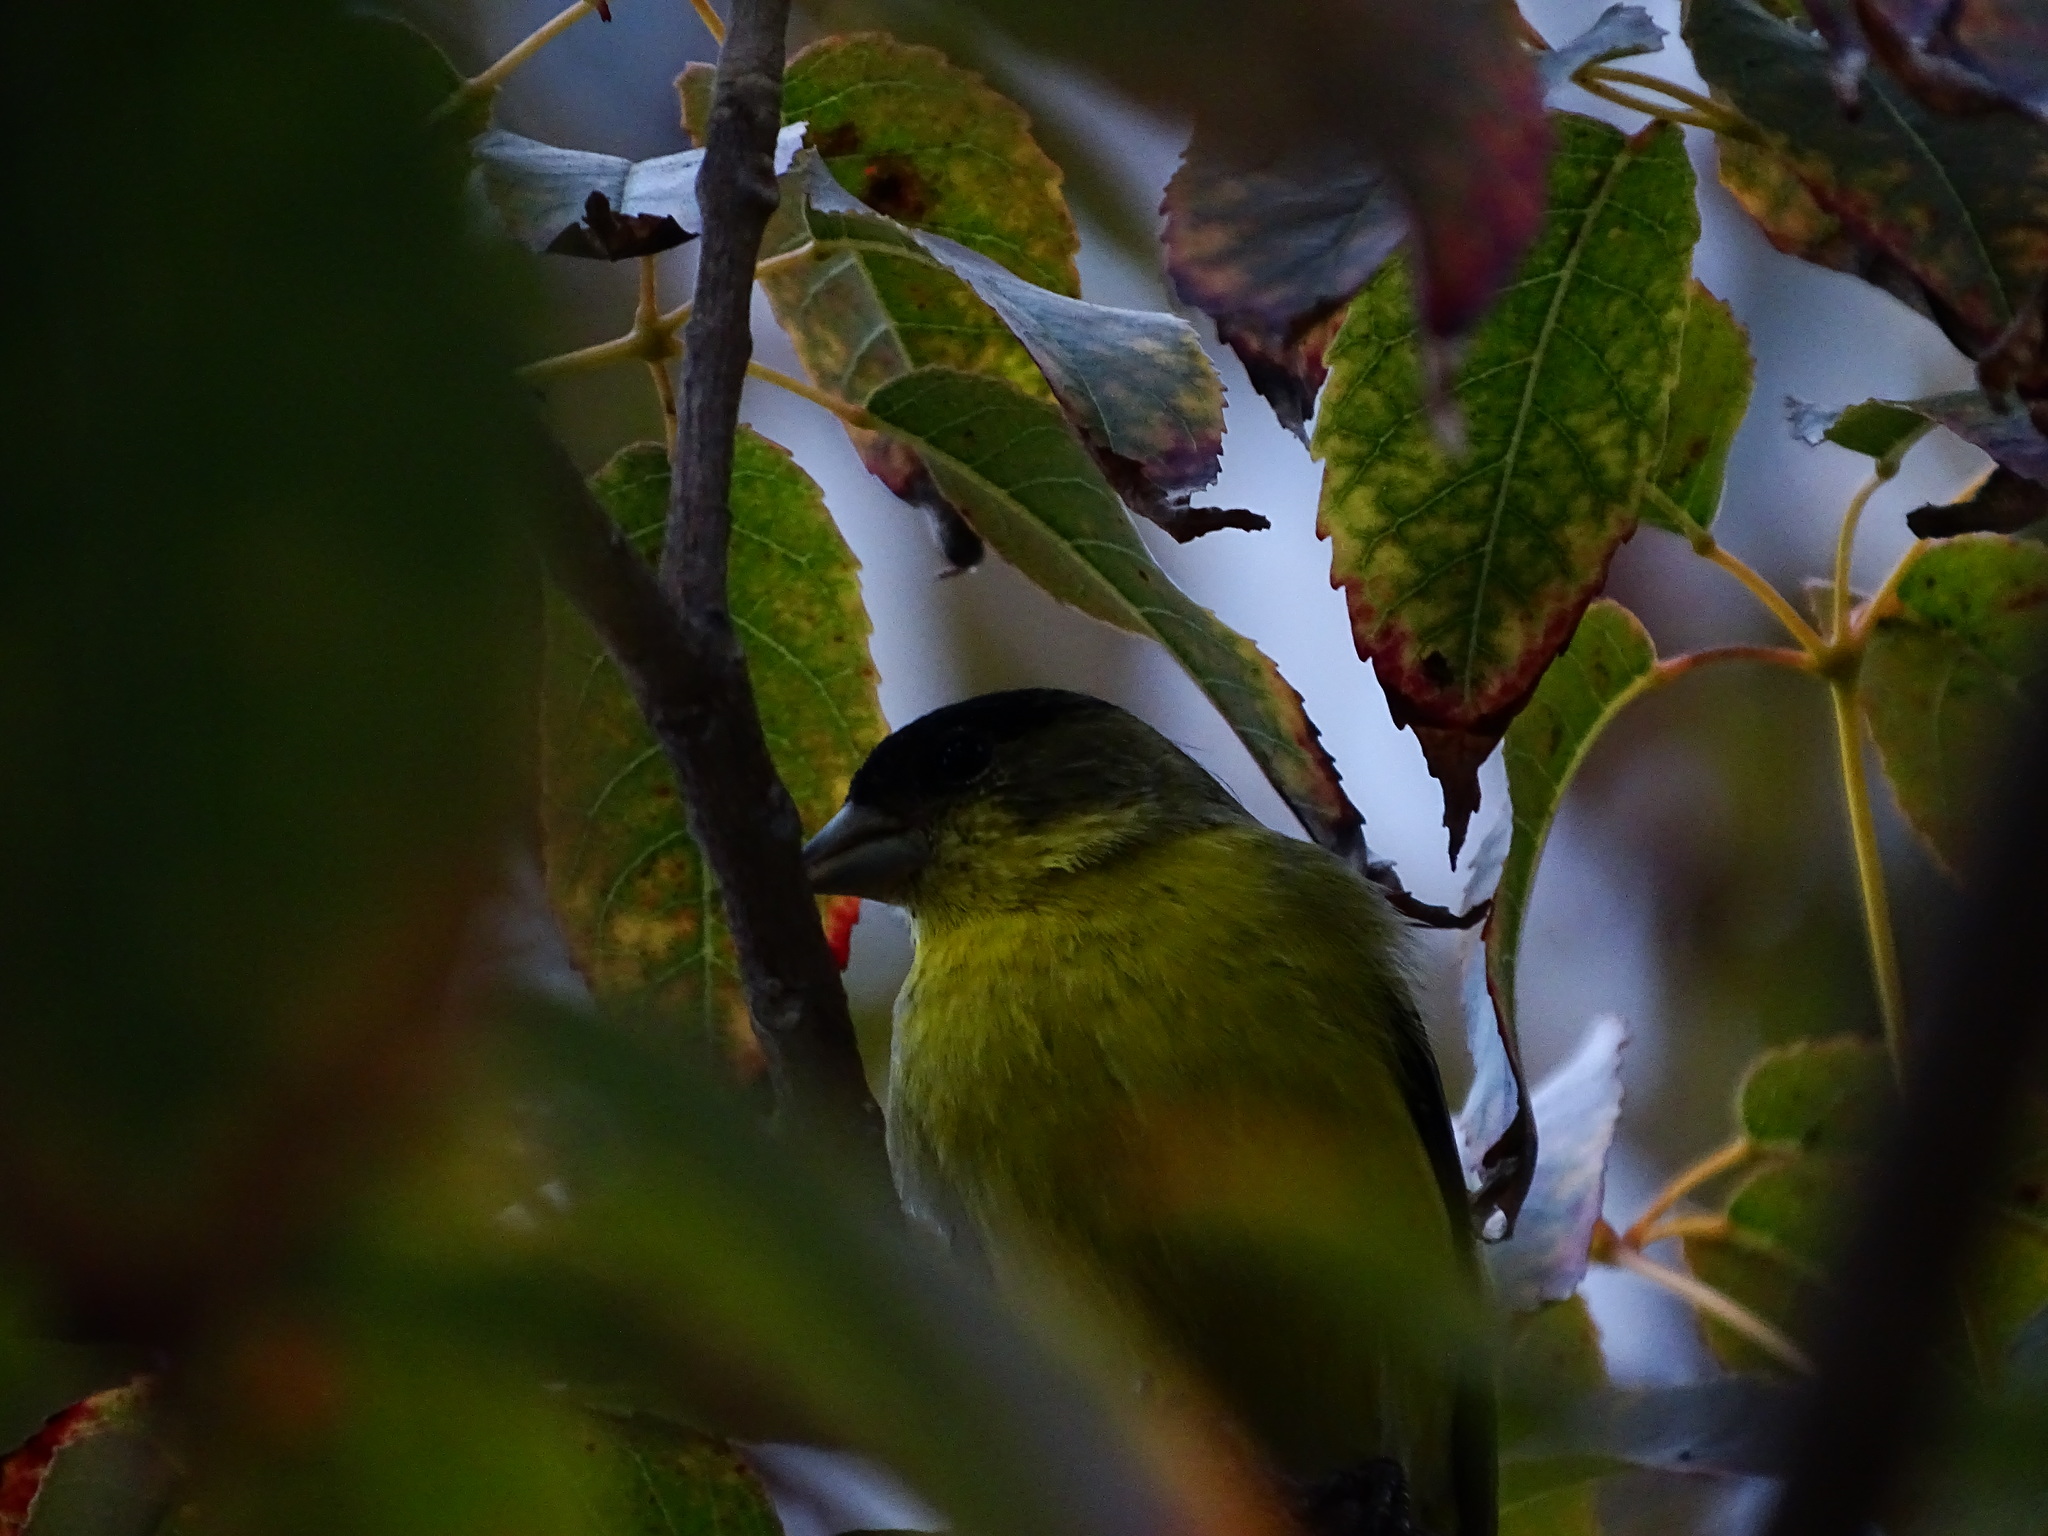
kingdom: Animalia
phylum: Chordata
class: Aves
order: Passeriformes
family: Fringillidae
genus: Spinus
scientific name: Spinus psaltria
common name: Lesser goldfinch
